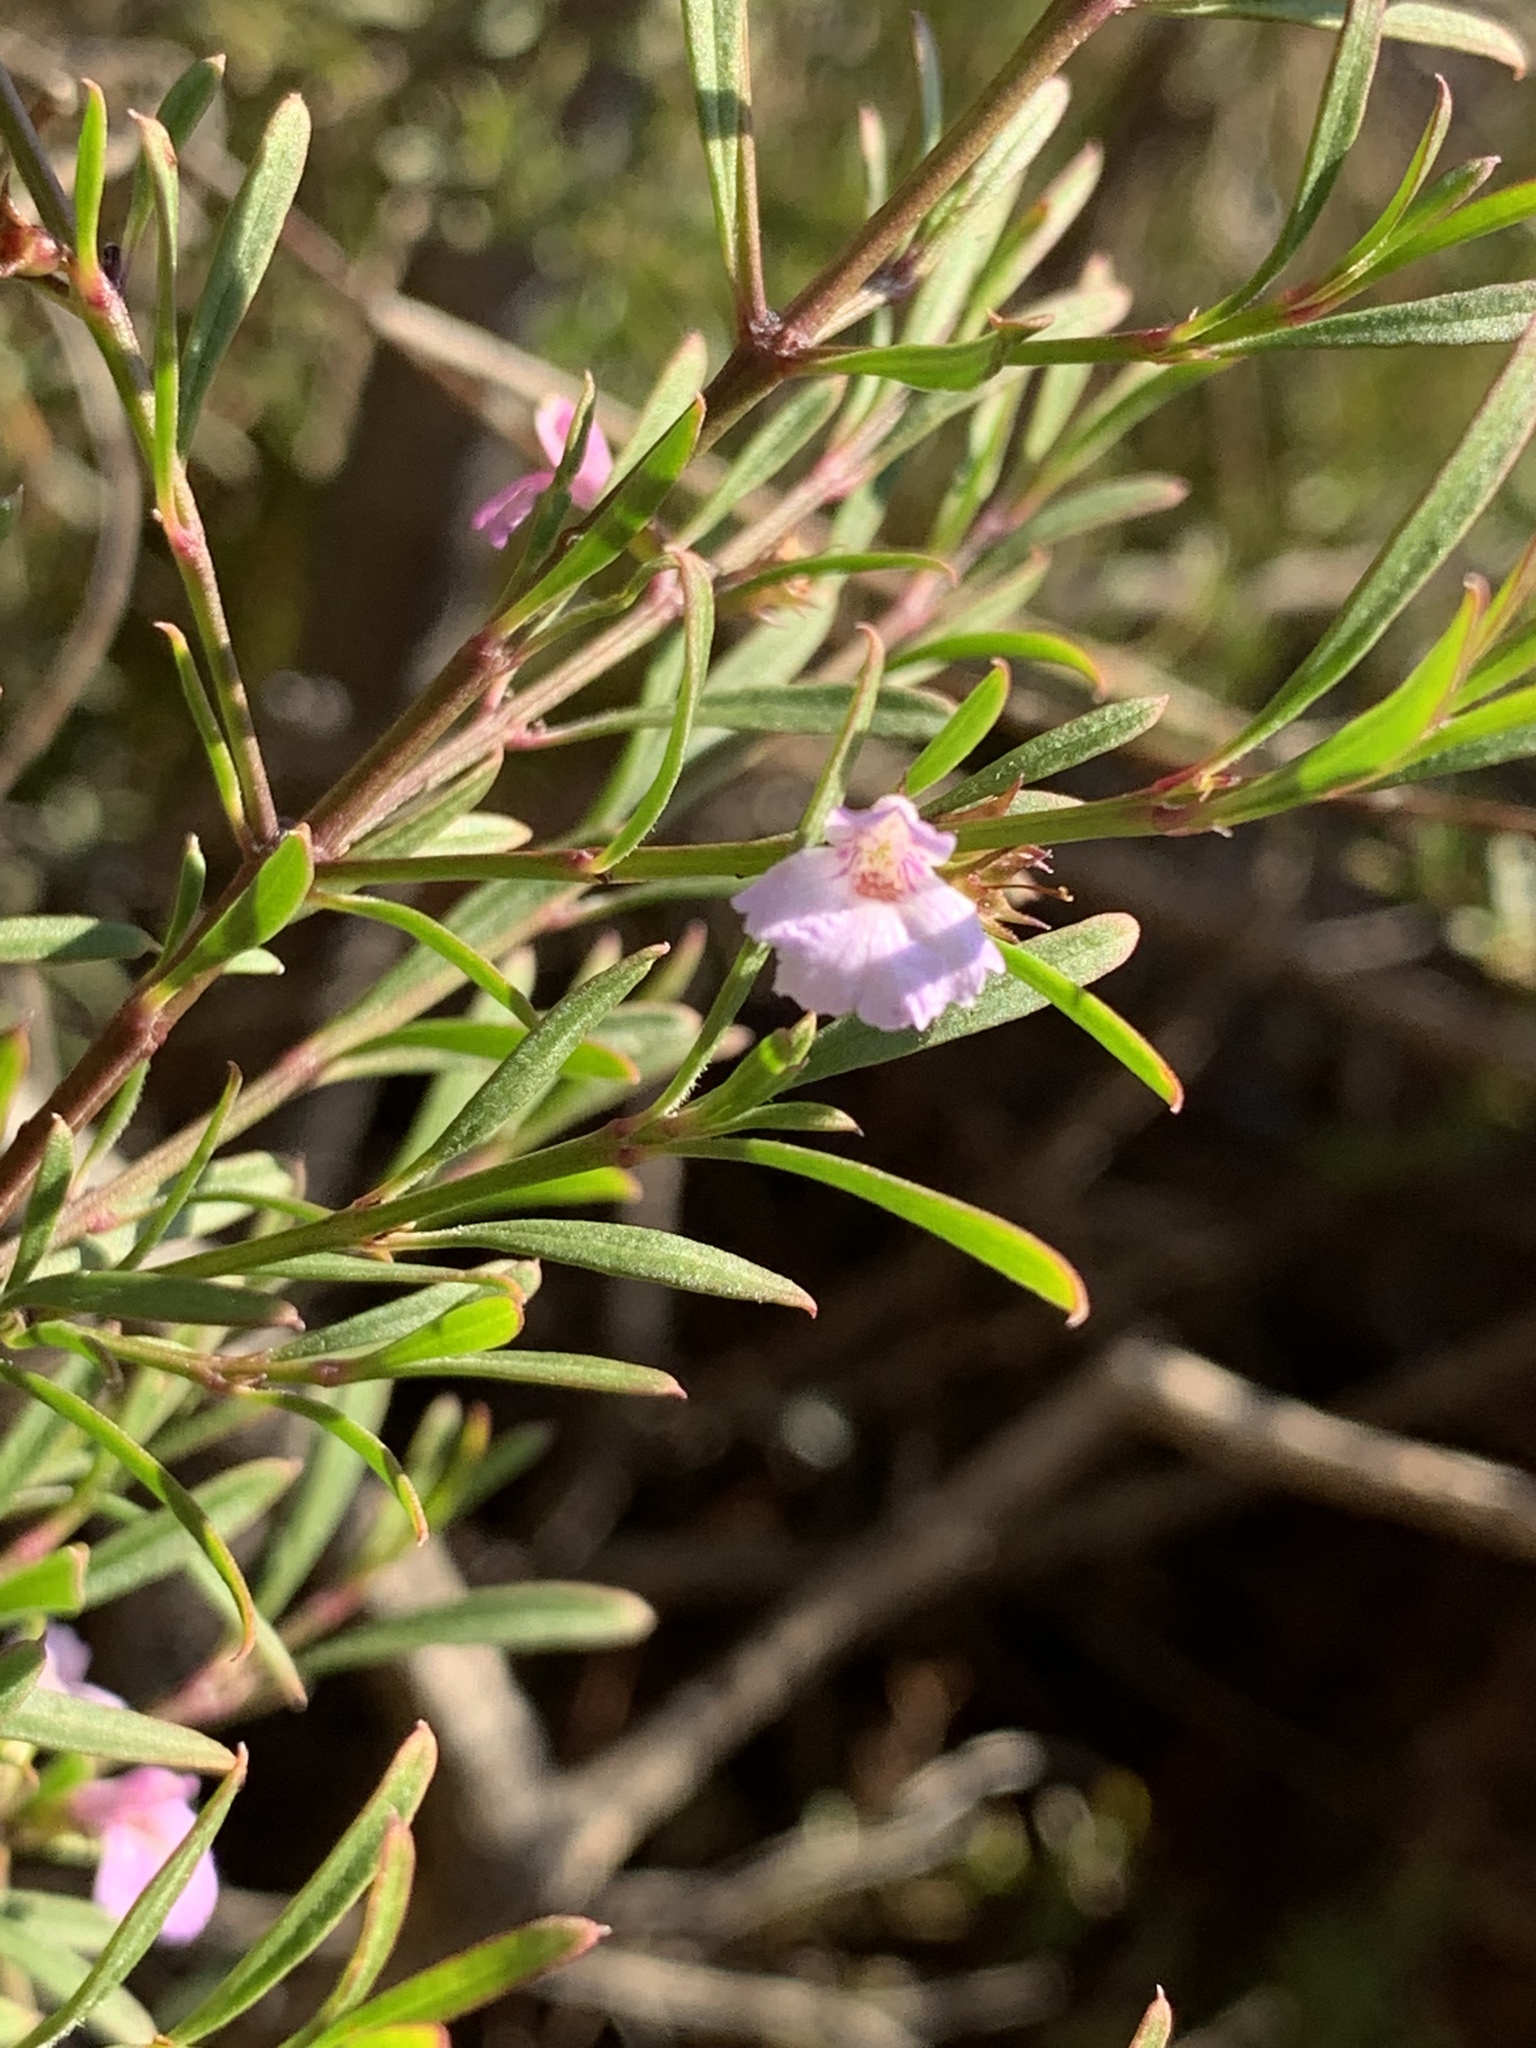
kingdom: Plantae
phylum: Tracheophyta
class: Magnoliopsida
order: Lamiales
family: Lamiaceae
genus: Hemigenia
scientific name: Hemigenia cuneifolia
